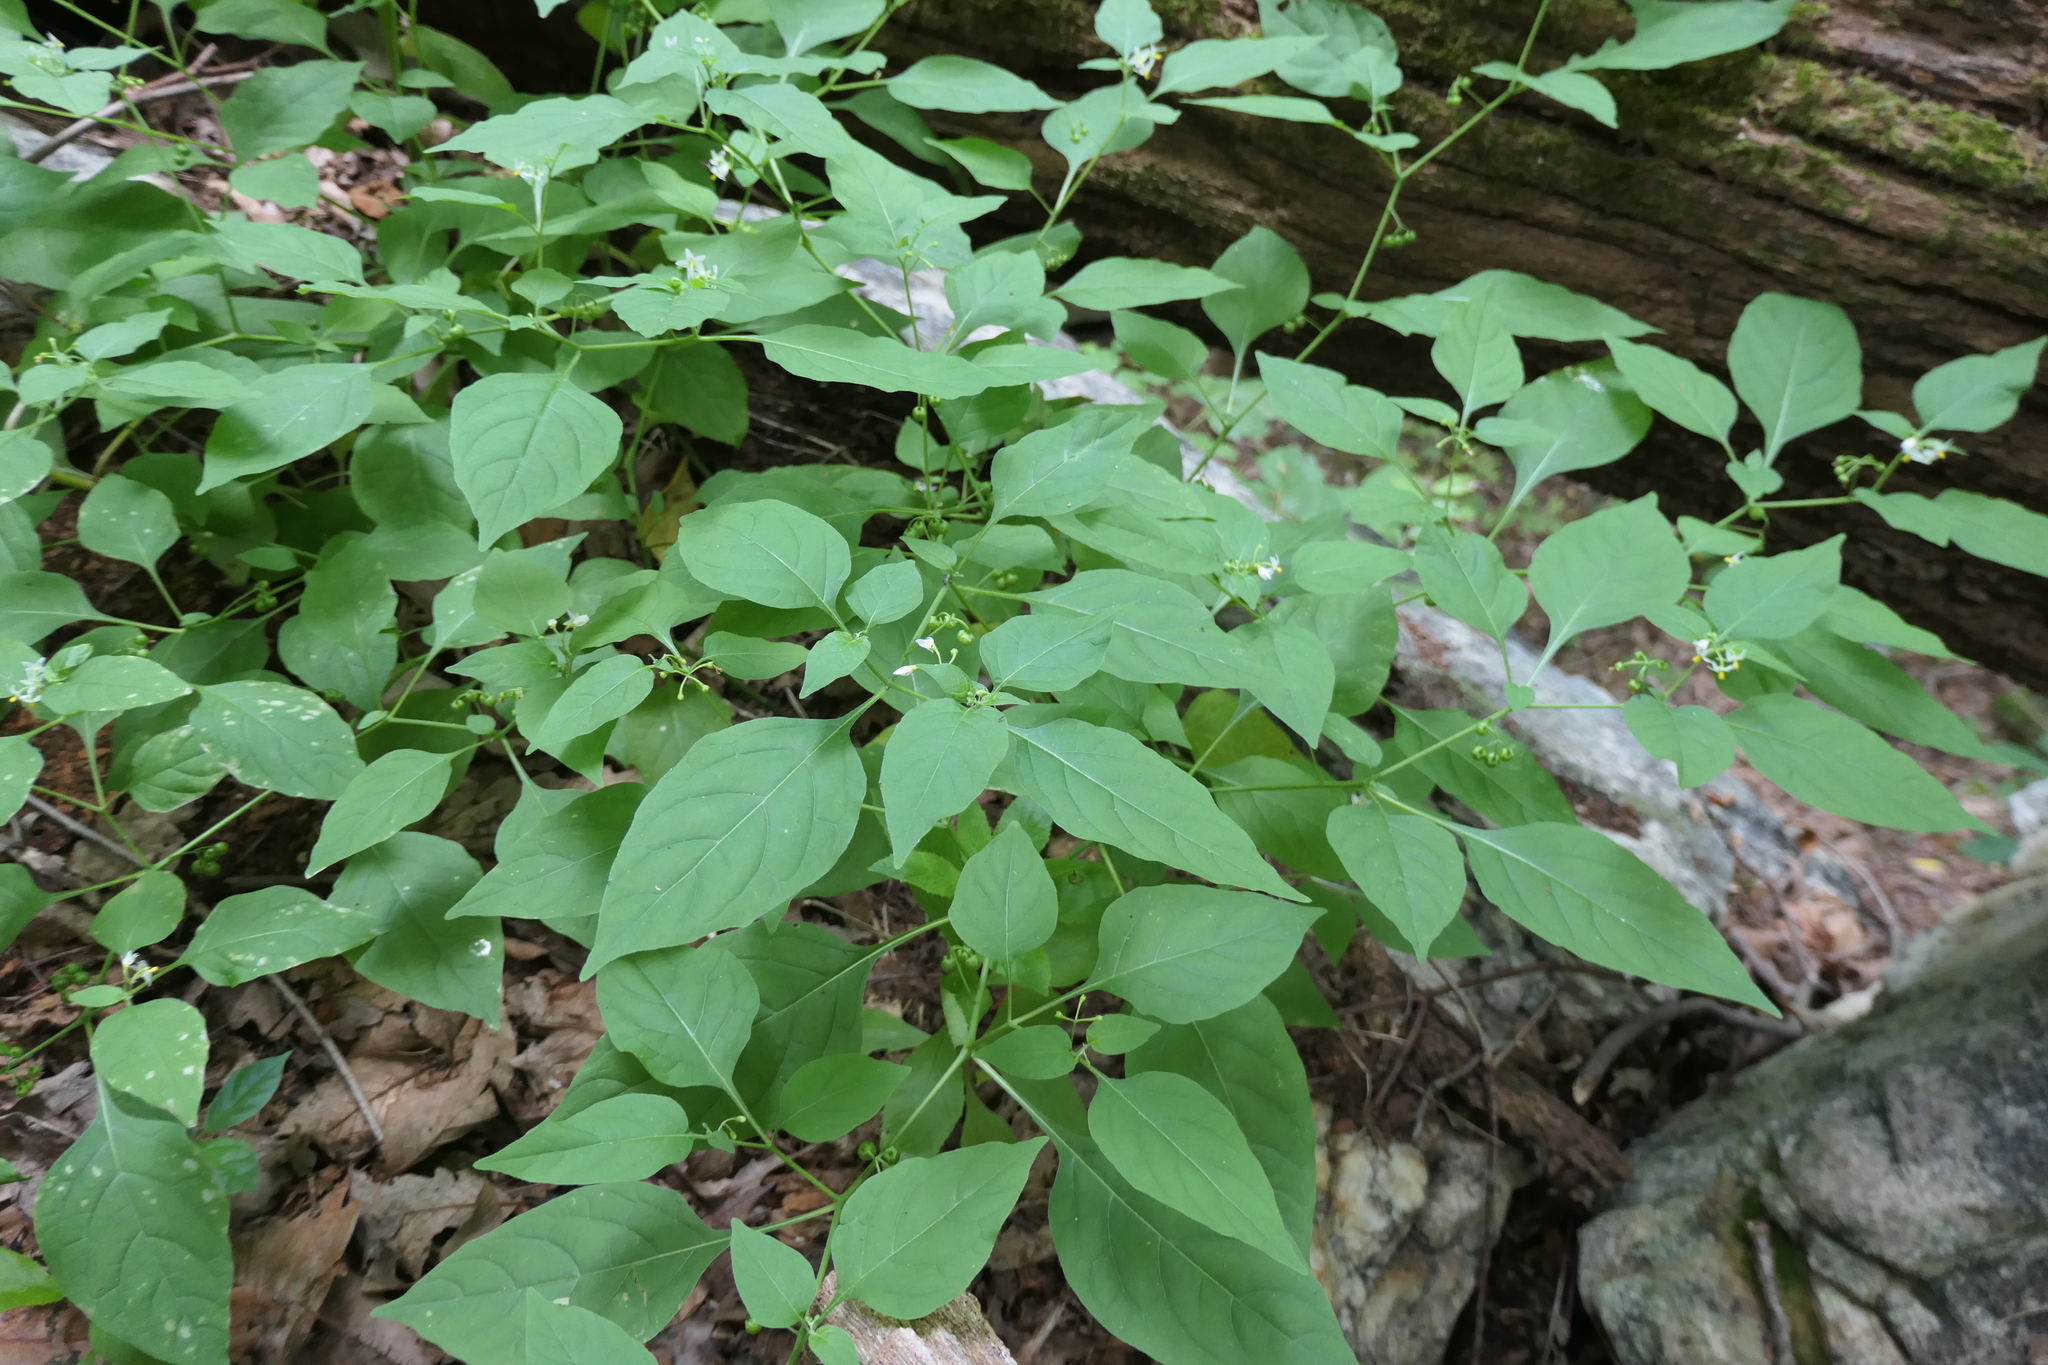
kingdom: Plantae
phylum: Tracheophyta
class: Magnoliopsida
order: Solanales
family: Solanaceae
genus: Solanum
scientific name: Solanum emulans
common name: Eastern black nightshade
